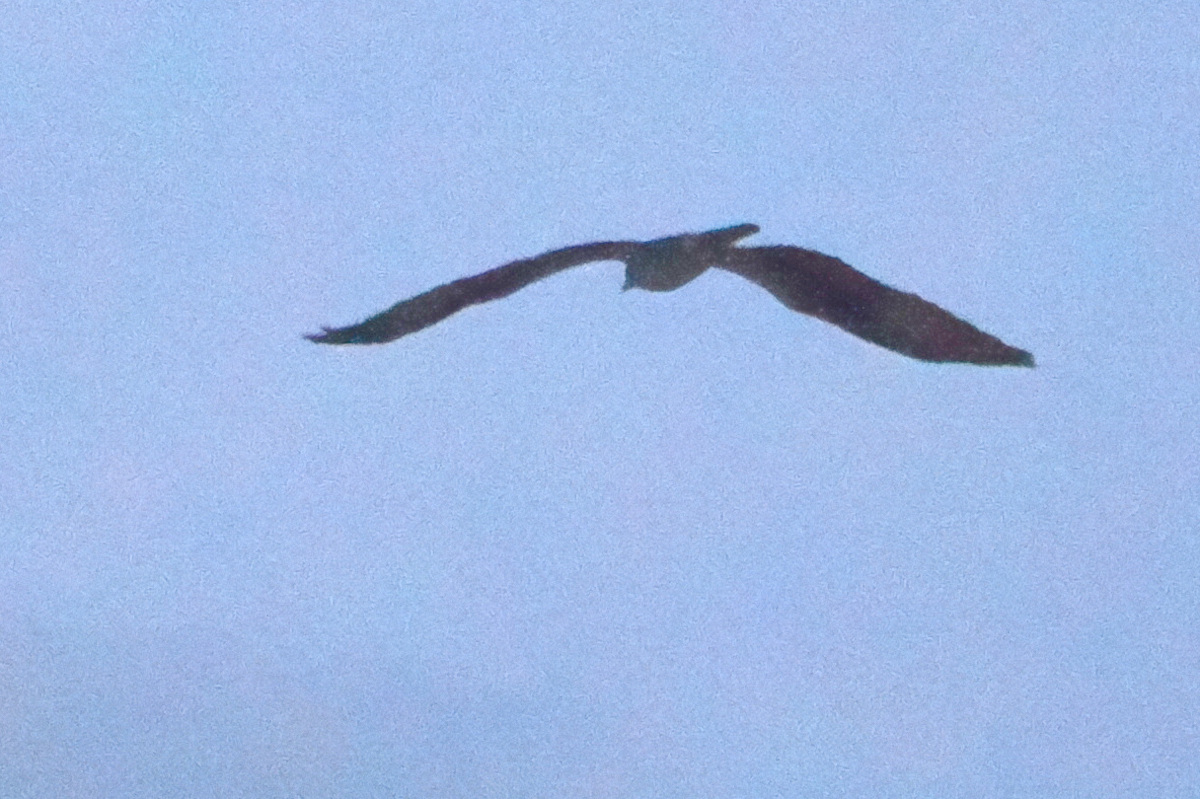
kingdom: Animalia
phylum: Chordata
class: Aves
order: Accipitriformes
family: Pandionidae
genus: Pandion
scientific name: Pandion haliaetus
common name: Osprey
